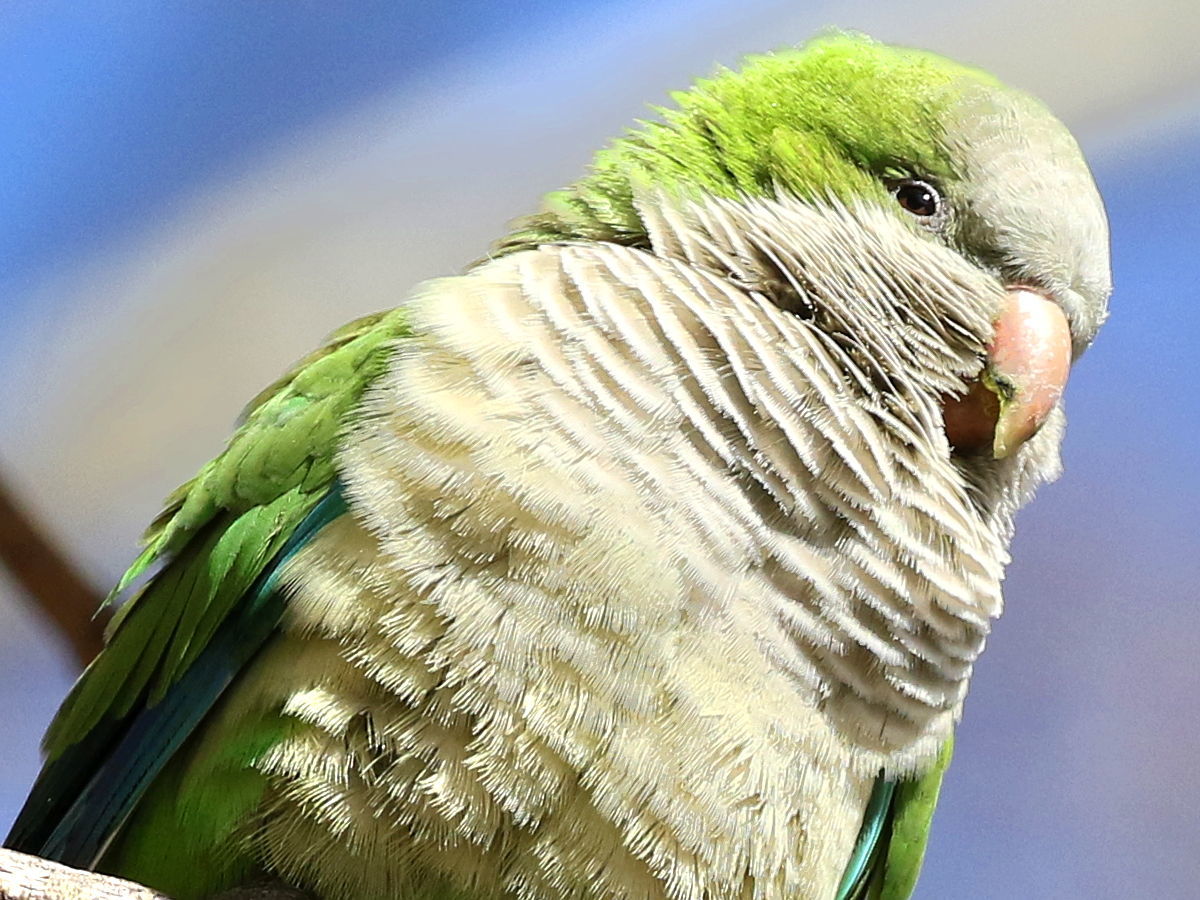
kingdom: Animalia
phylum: Chordata
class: Aves
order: Psittaciformes
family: Psittacidae
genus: Myiopsitta
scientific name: Myiopsitta monachus
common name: Monk parakeet
